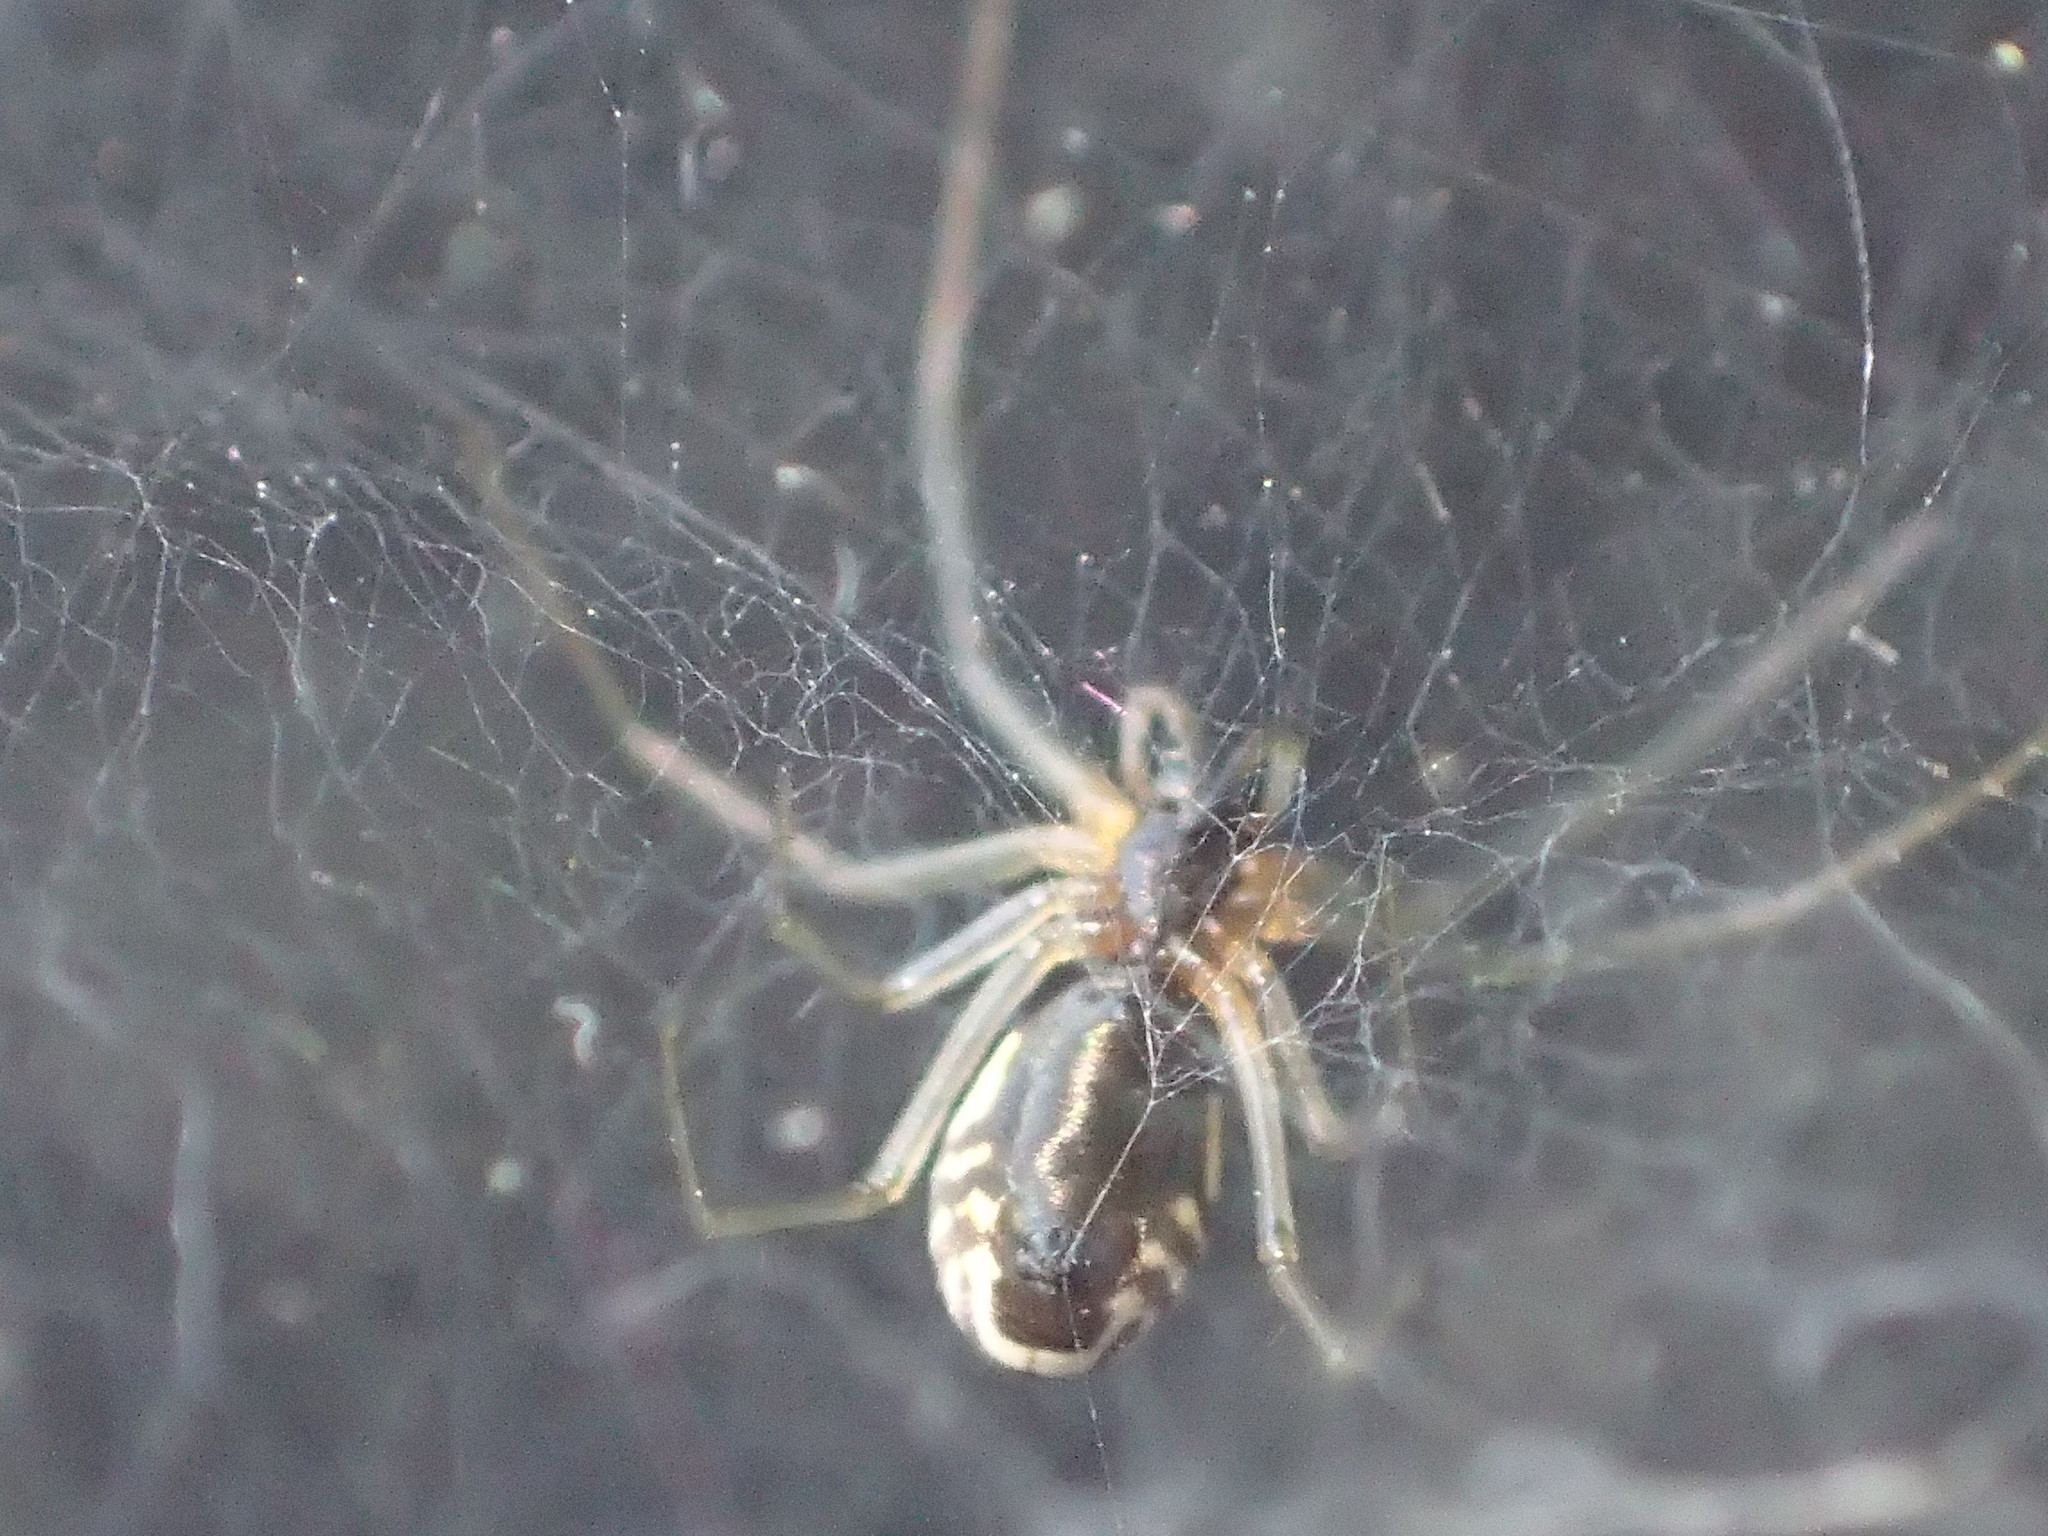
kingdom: Animalia
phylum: Arthropoda
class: Arachnida
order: Araneae
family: Linyphiidae
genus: Frontinella
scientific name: Frontinella pyramitela
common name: Bowl-and-doily spider
